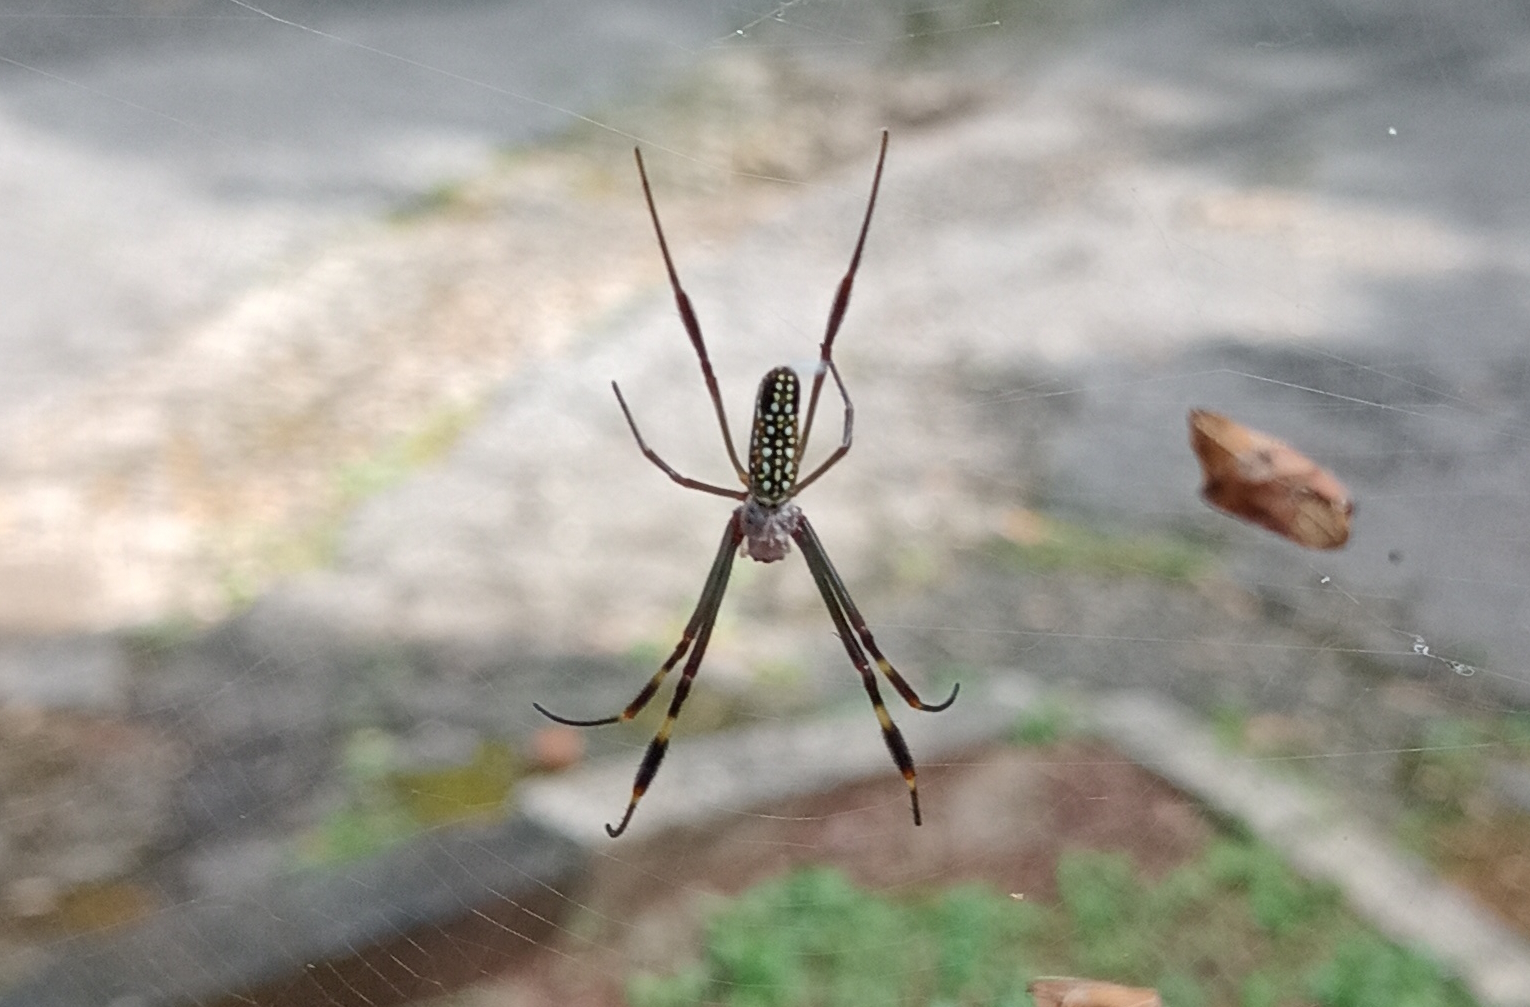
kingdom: Animalia
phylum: Arthropoda
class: Arachnida
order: Araneae
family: Araneidae
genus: Trichonephila
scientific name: Trichonephila clavipes
